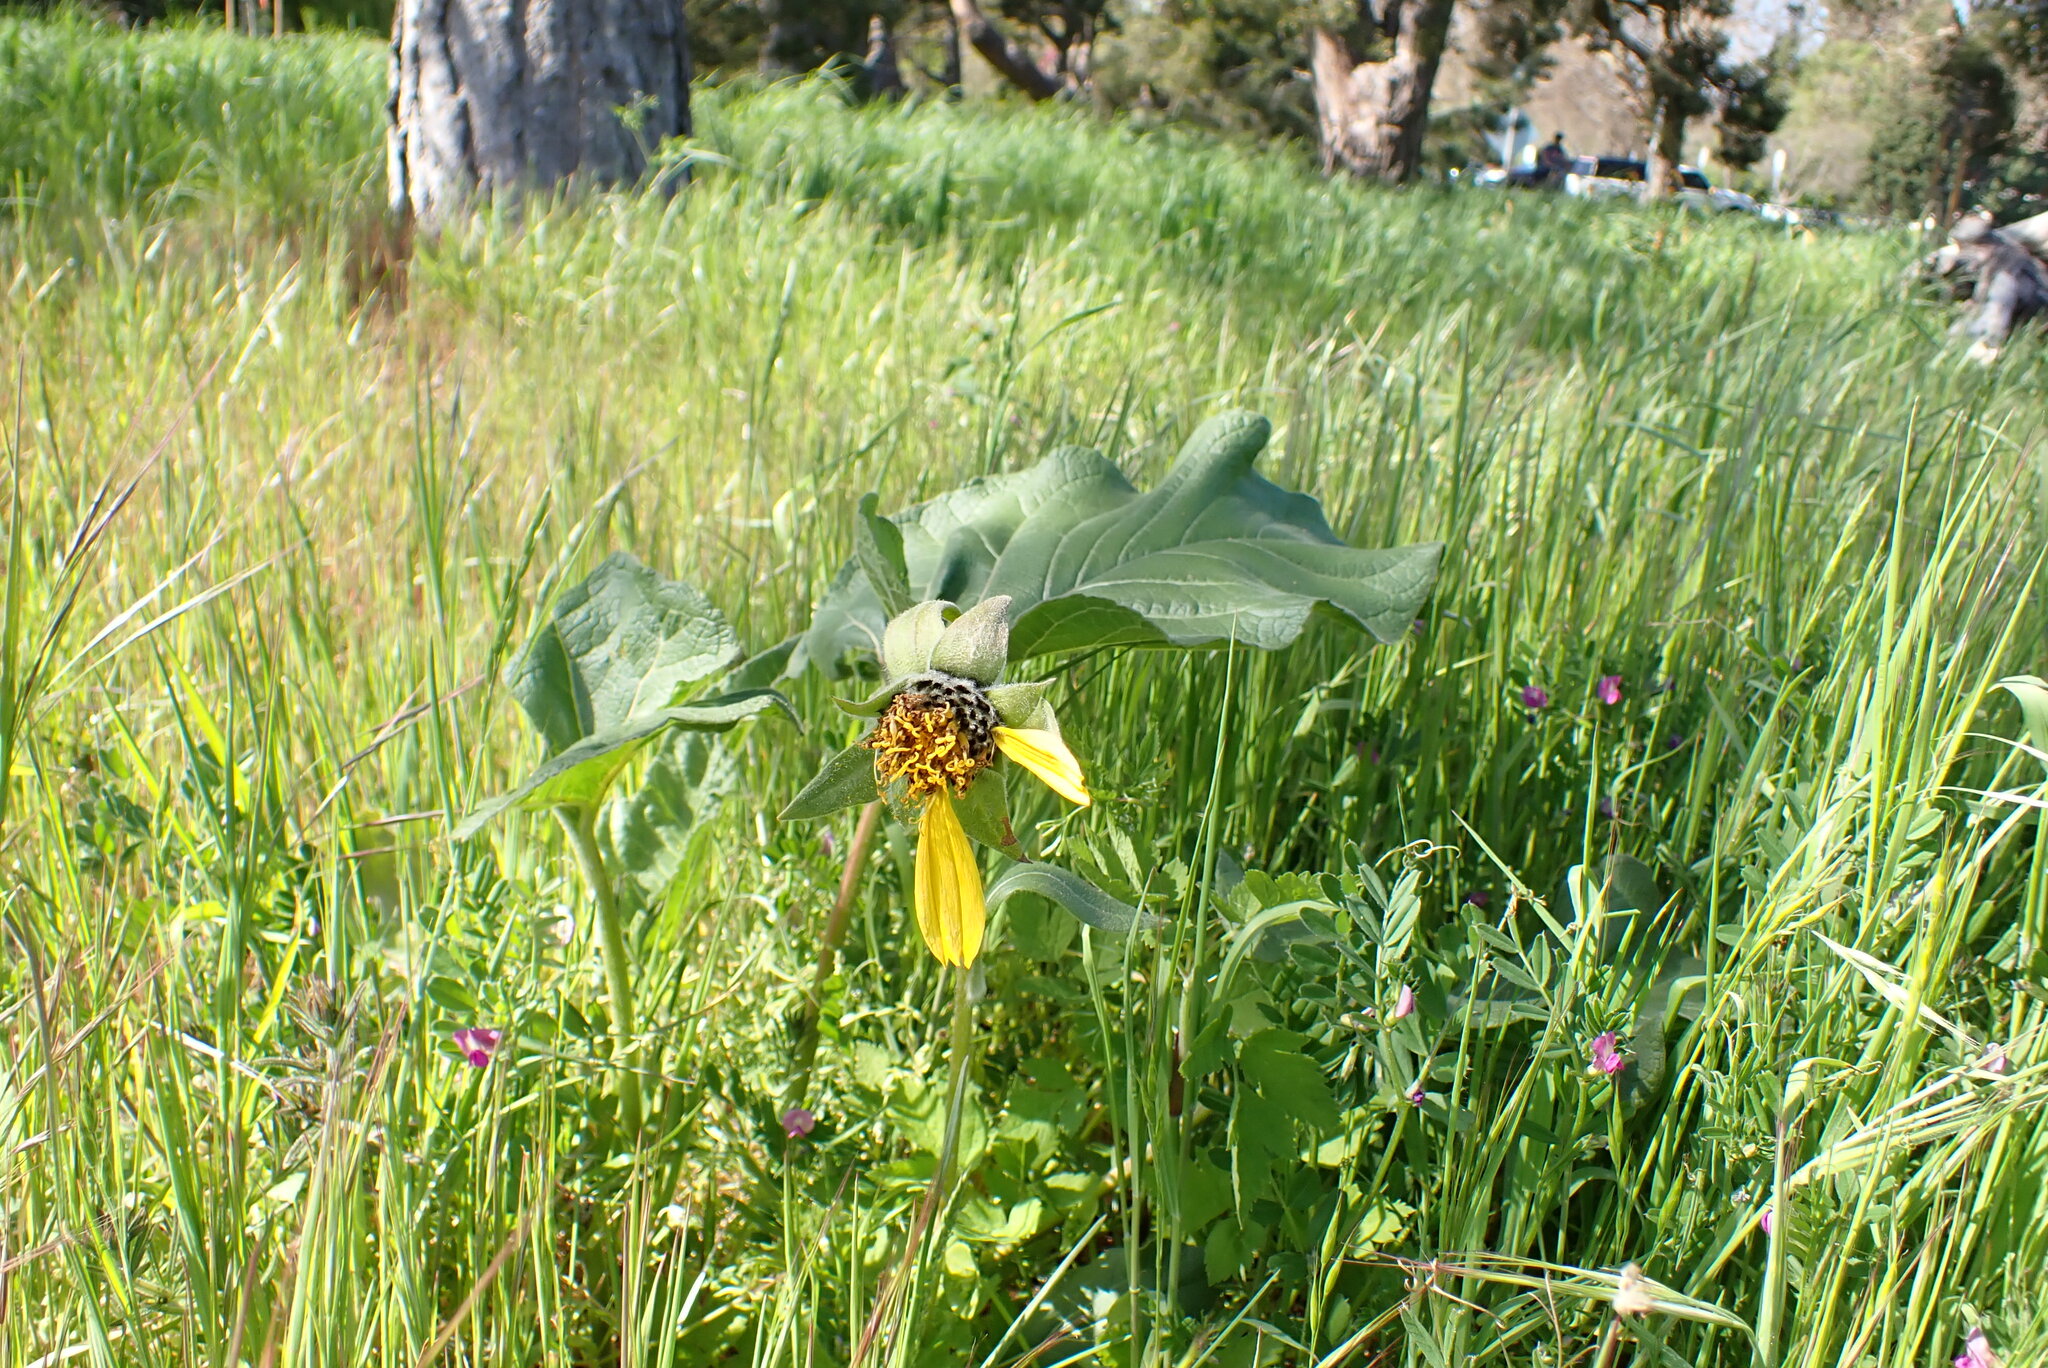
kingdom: Plantae
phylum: Tracheophyta
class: Magnoliopsida
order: Asterales
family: Asteraceae
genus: Balsamorhiza
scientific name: Balsamorhiza deltoidea
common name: Deltoid balsamroot
